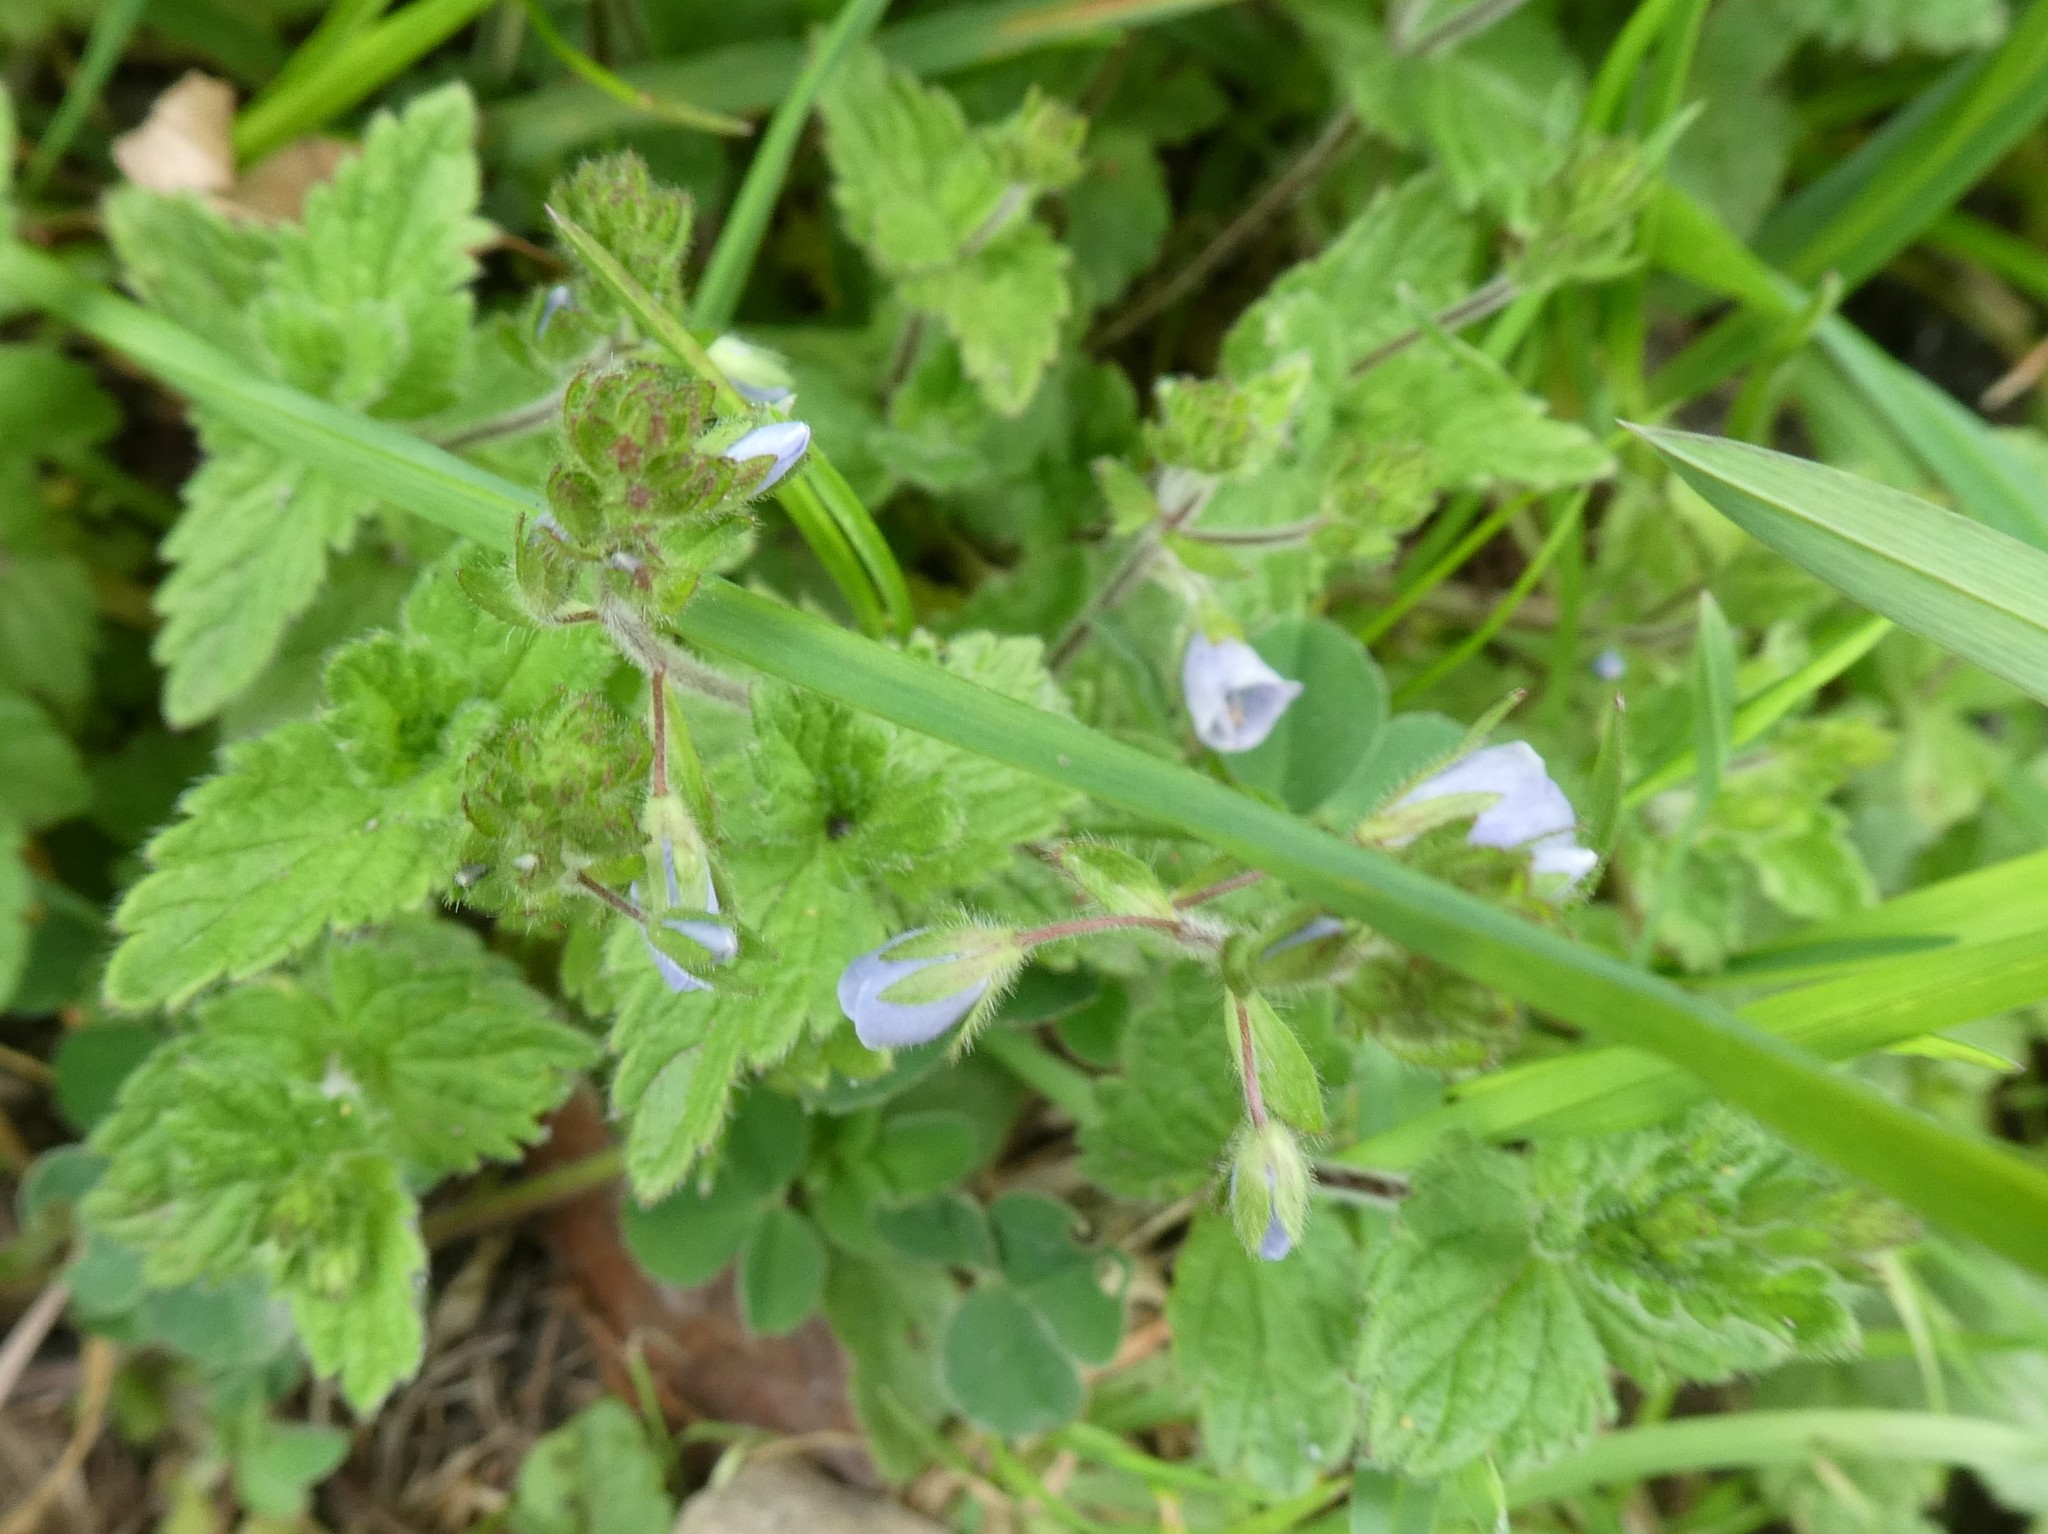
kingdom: Plantae
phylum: Tracheophyta
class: Magnoliopsida
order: Lamiales
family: Plantaginaceae
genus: Veronica
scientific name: Veronica chamaedrys
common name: Germander speedwell
